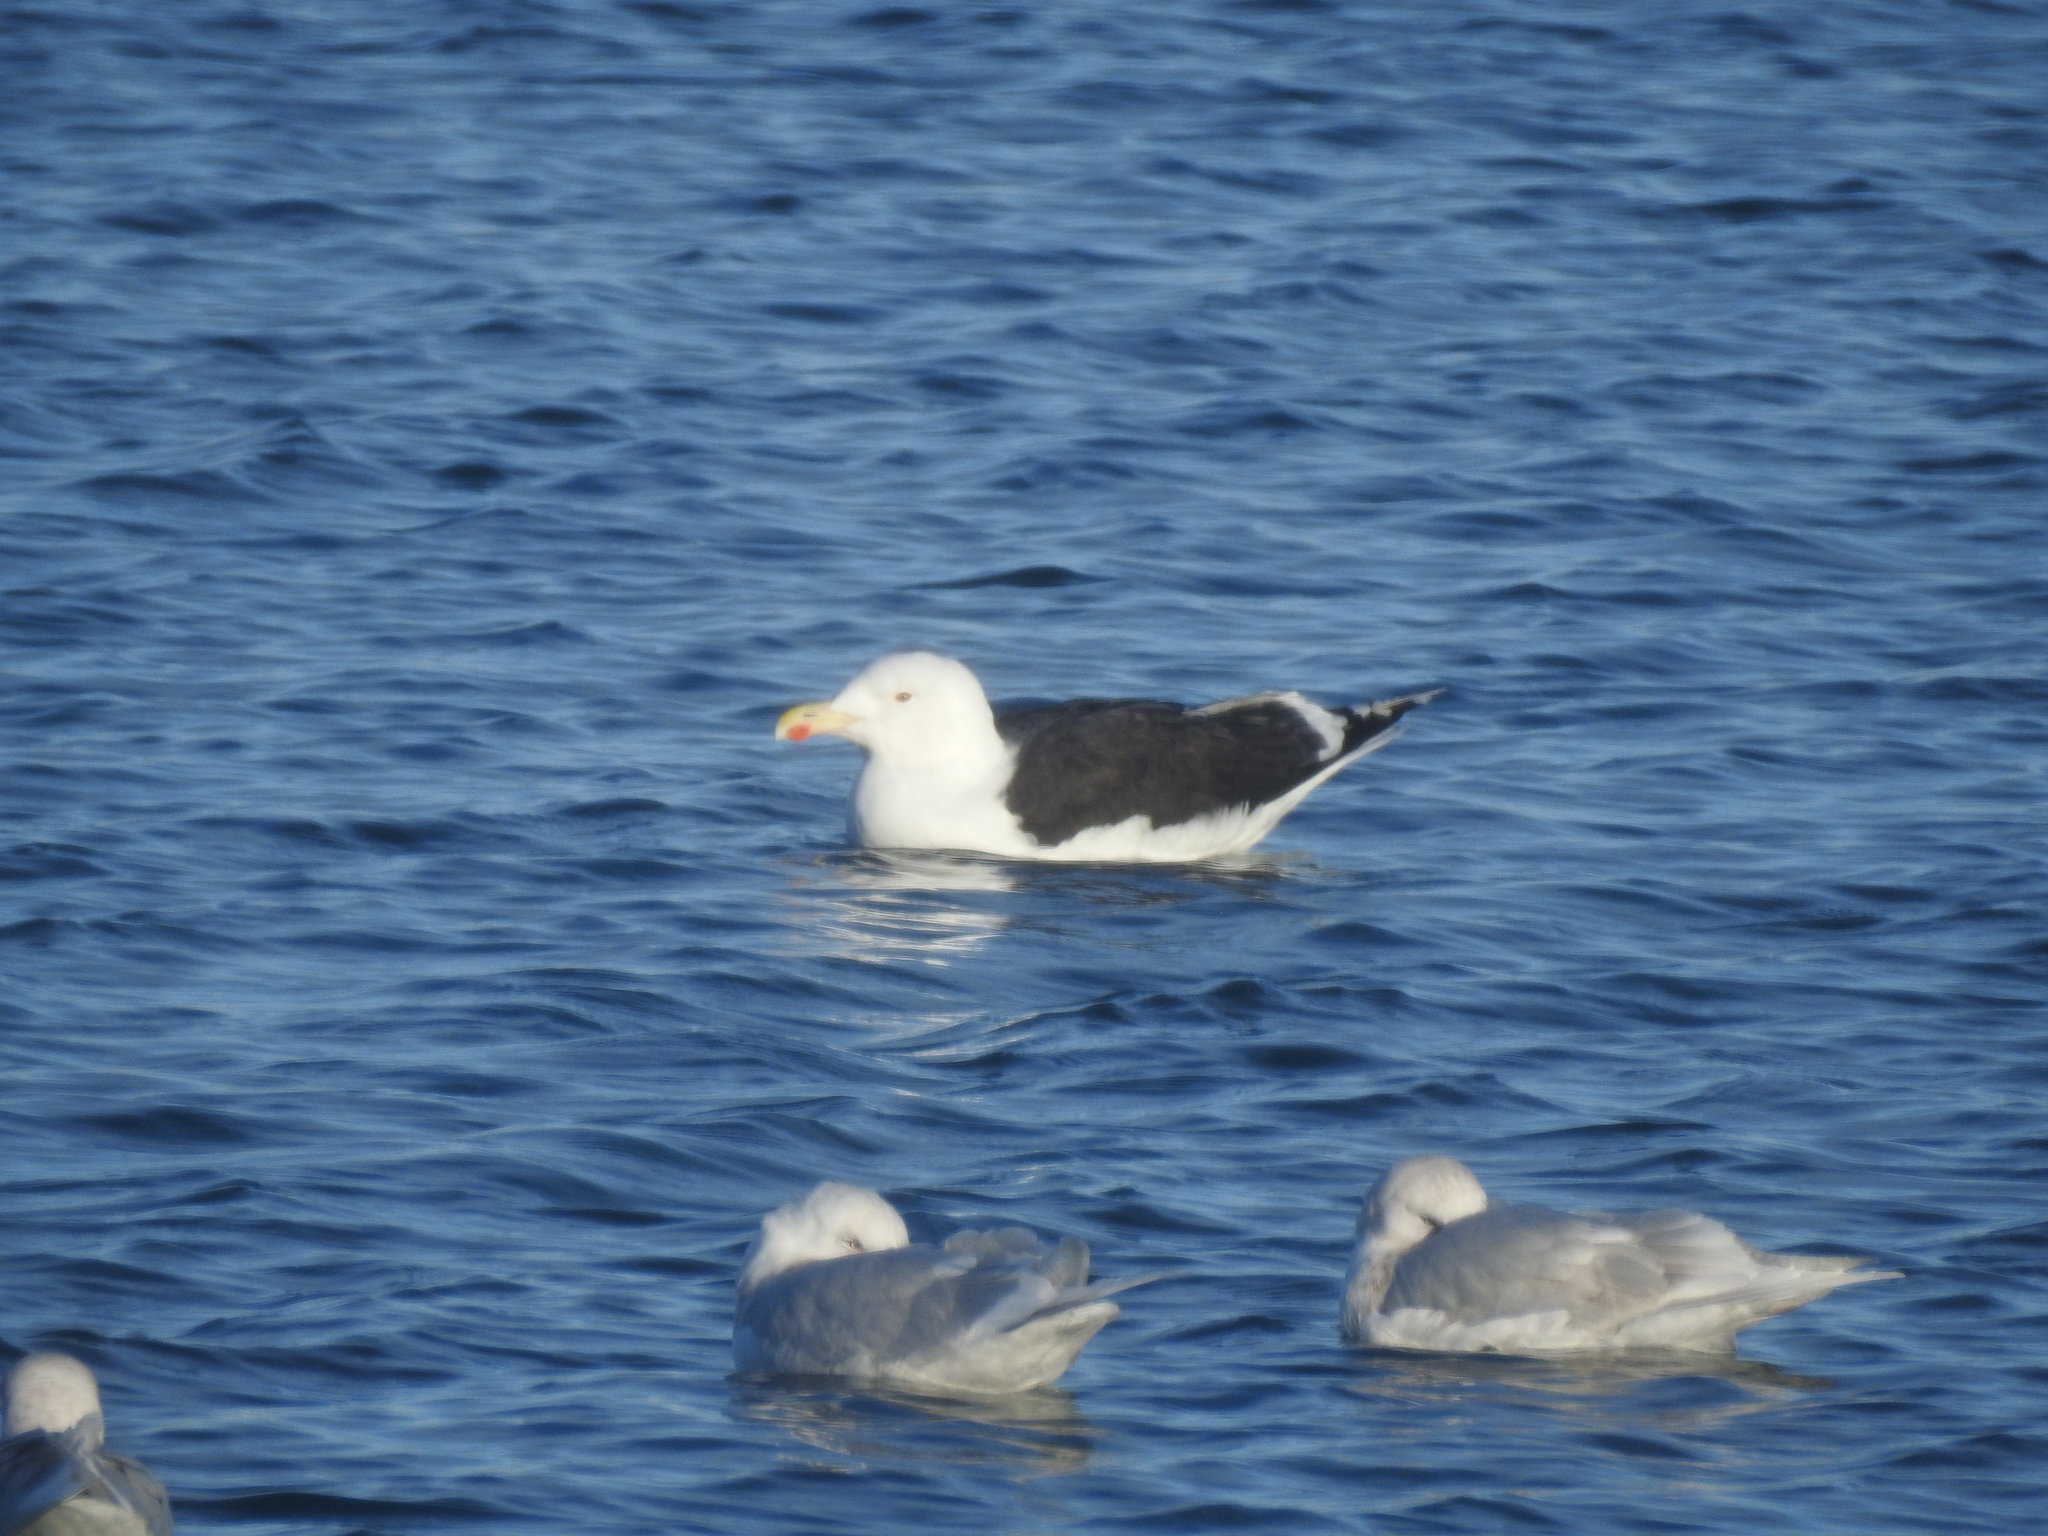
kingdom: Animalia
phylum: Chordata
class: Aves
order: Charadriiformes
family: Laridae
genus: Larus
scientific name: Larus marinus
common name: Great black-backed gull
